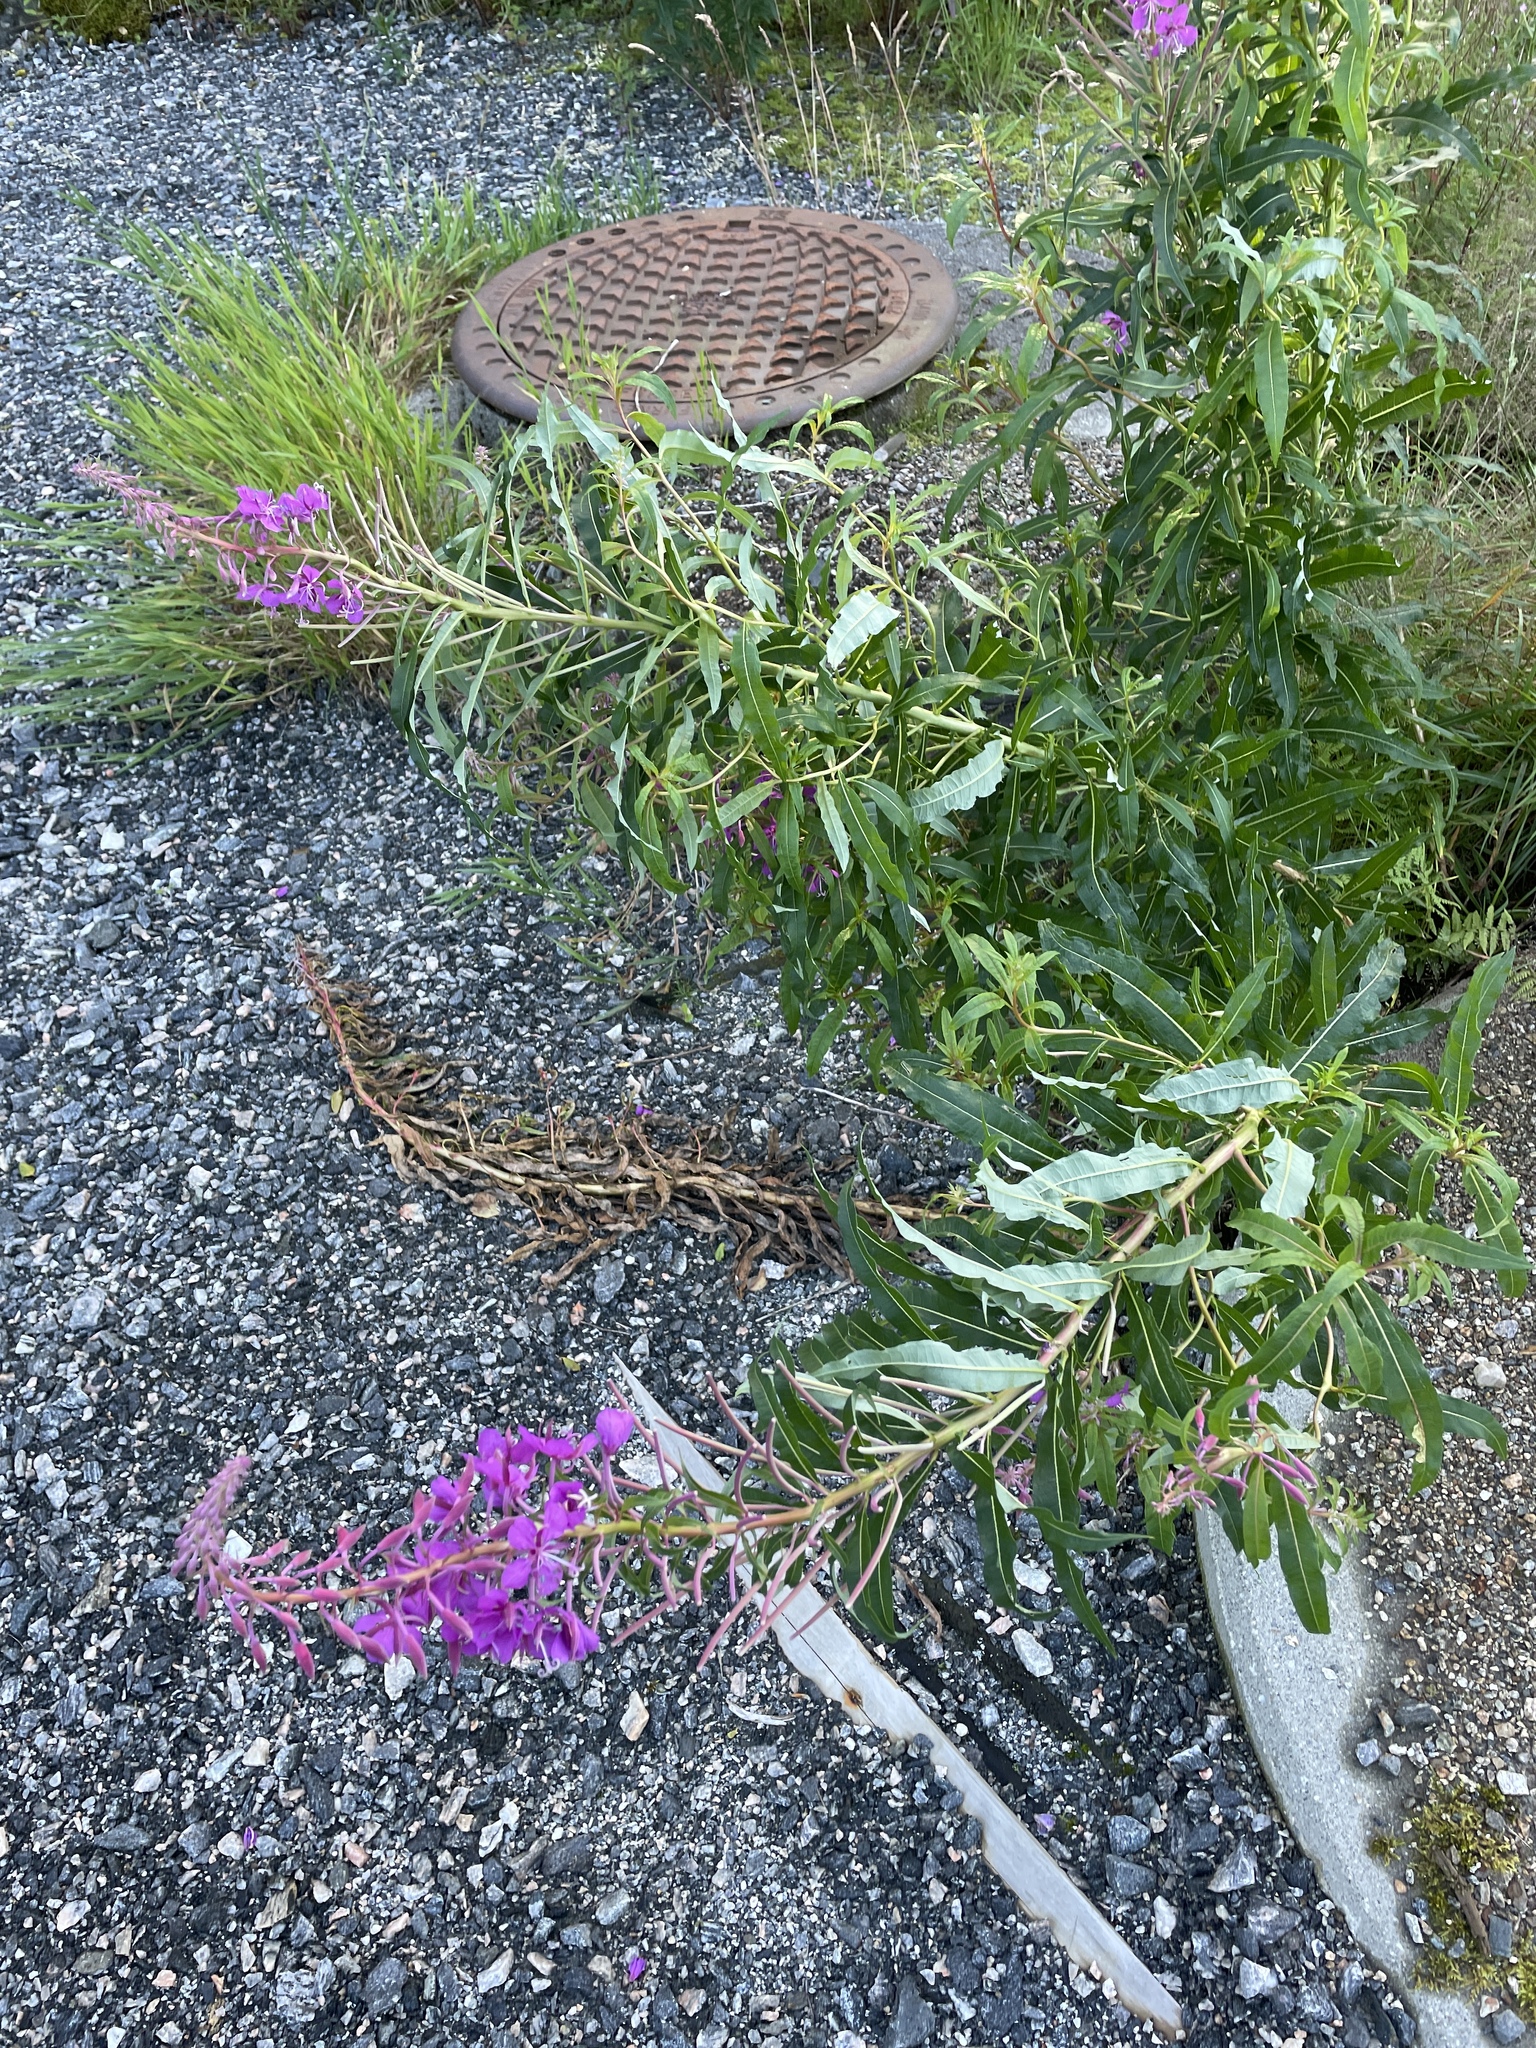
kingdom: Plantae
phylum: Tracheophyta
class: Magnoliopsida
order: Myrtales
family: Onagraceae
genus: Chamaenerion
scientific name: Chamaenerion angustifolium
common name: Fireweed
